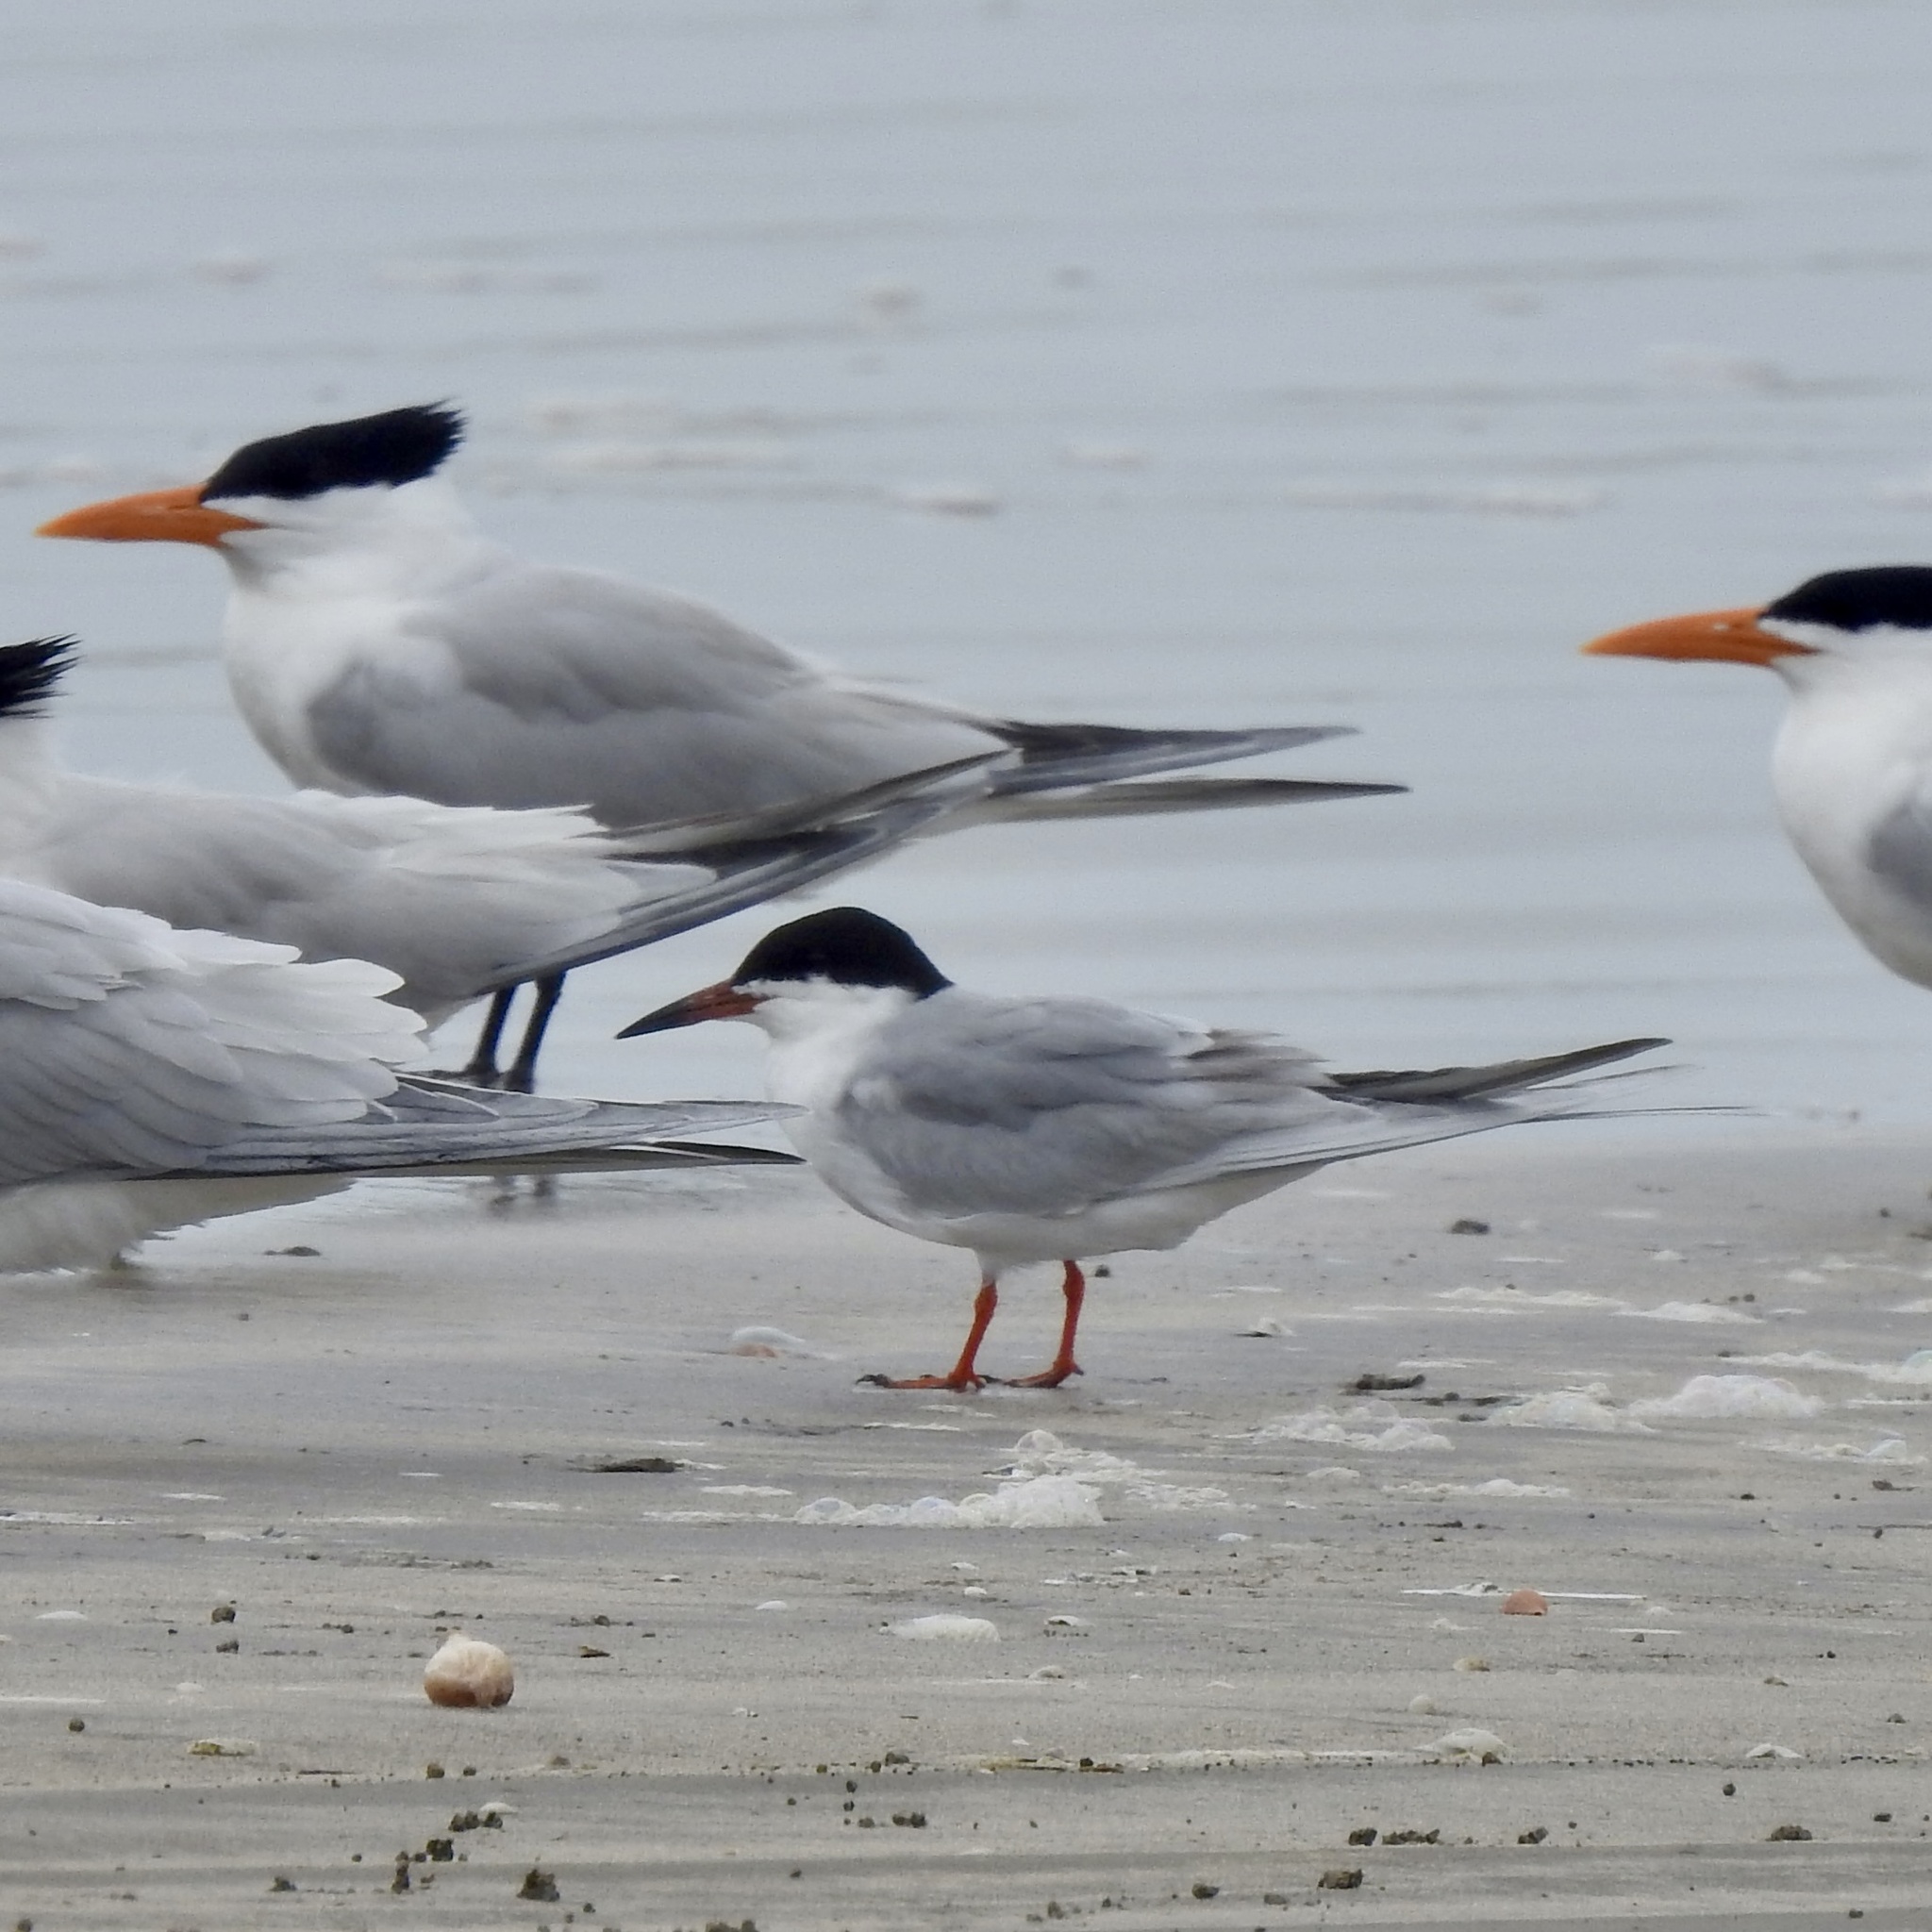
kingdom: Animalia
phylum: Chordata
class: Aves
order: Charadriiformes
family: Laridae
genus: Sterna
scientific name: Sterna forsteri
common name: Forster's tern
